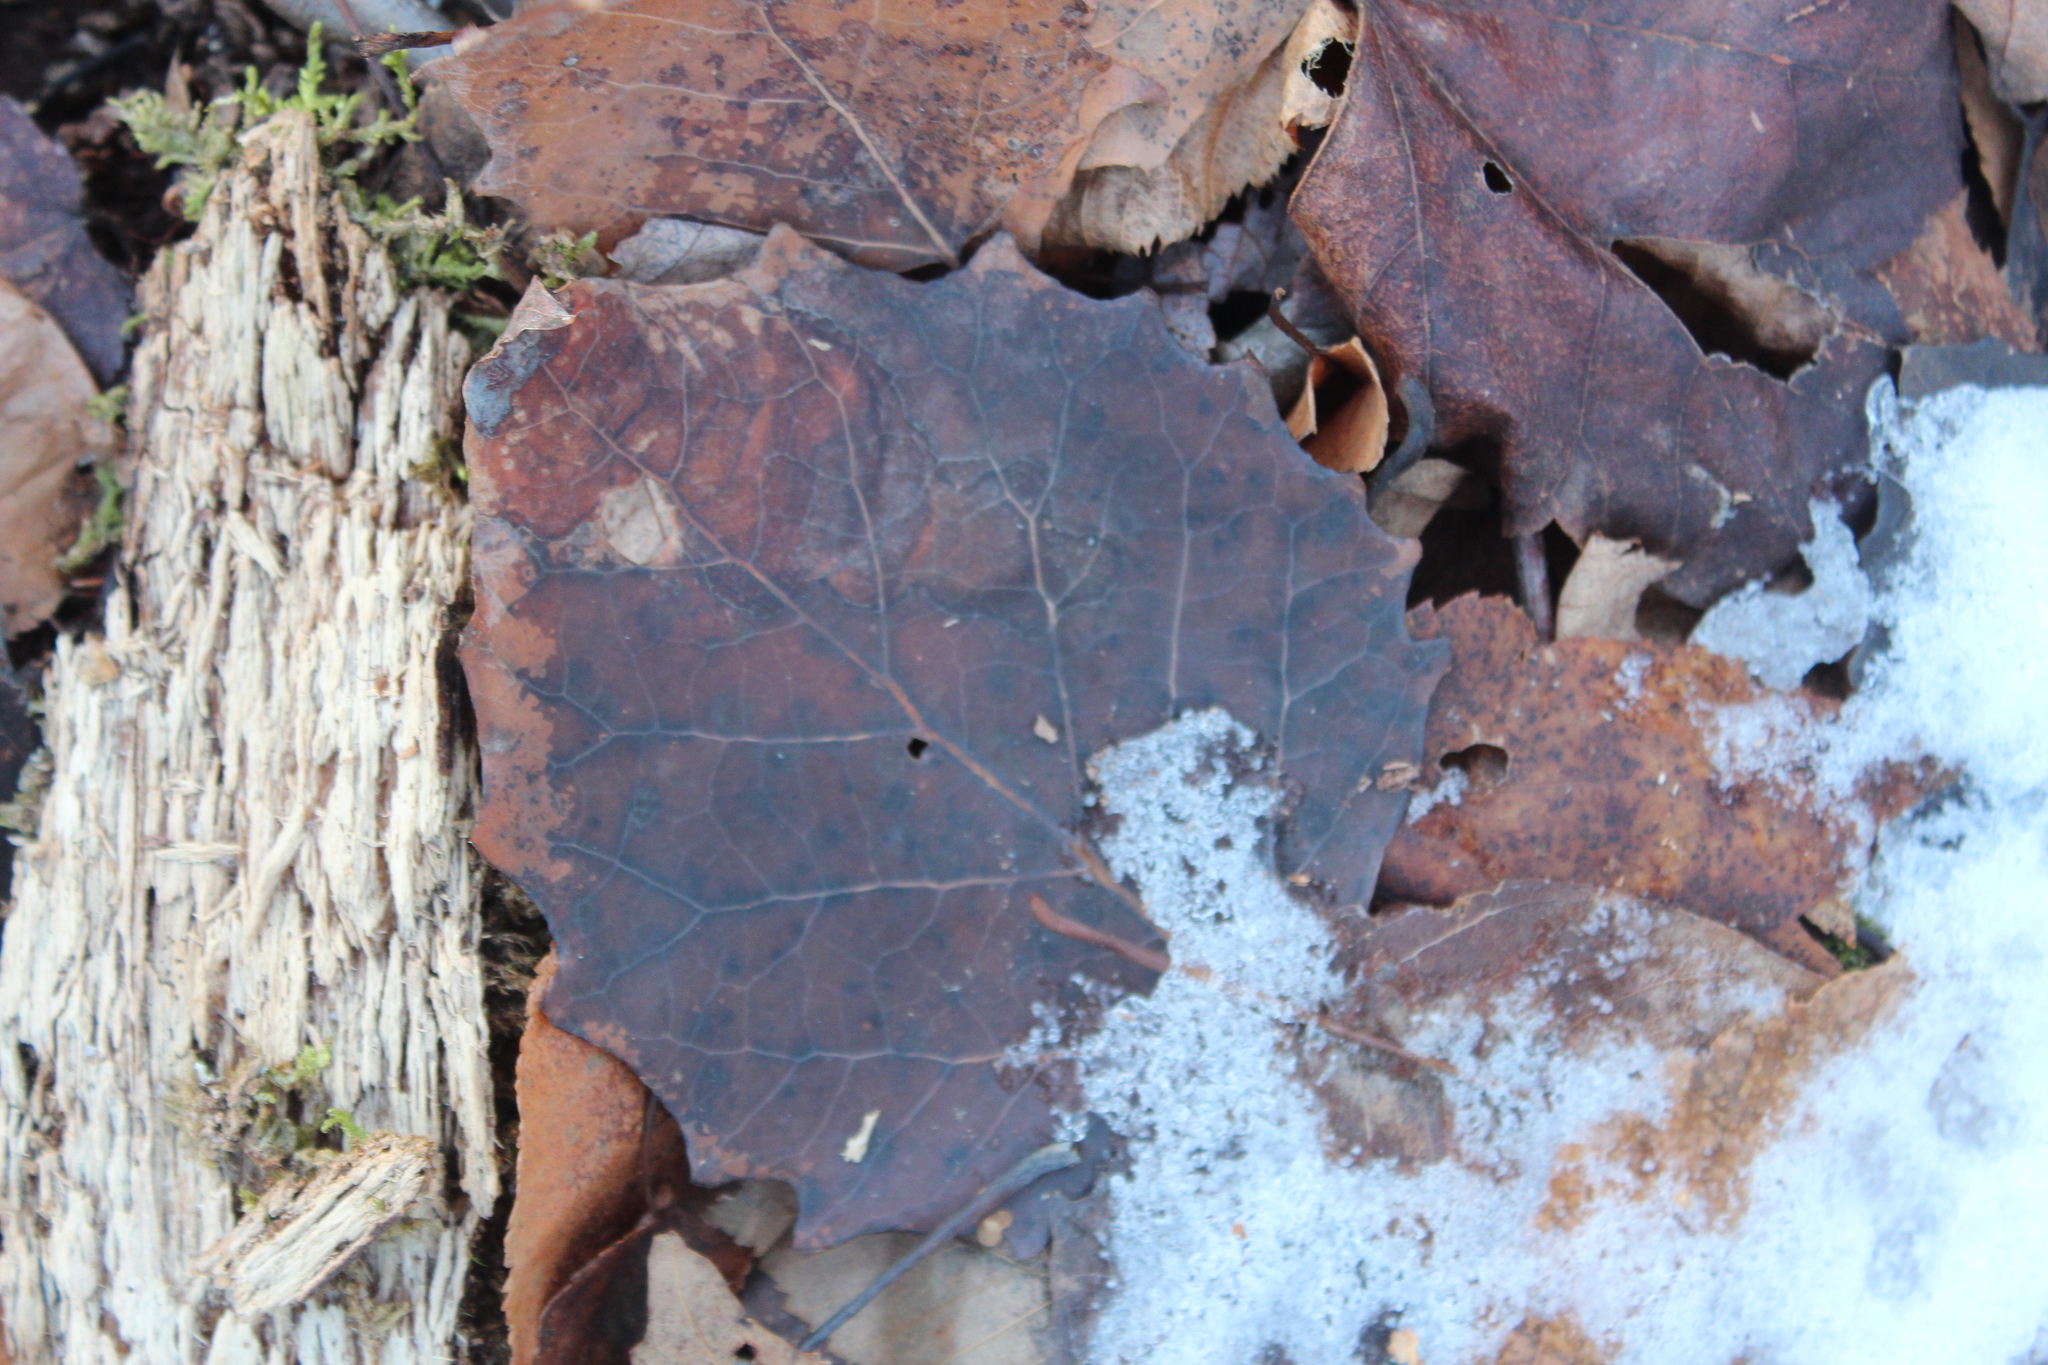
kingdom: Plantae
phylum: Tracheophyta
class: Magnoliopsida
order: Malpighiales
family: Salicaceae
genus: Populus
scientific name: Populus grandidentata
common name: Bigtooth aspen
